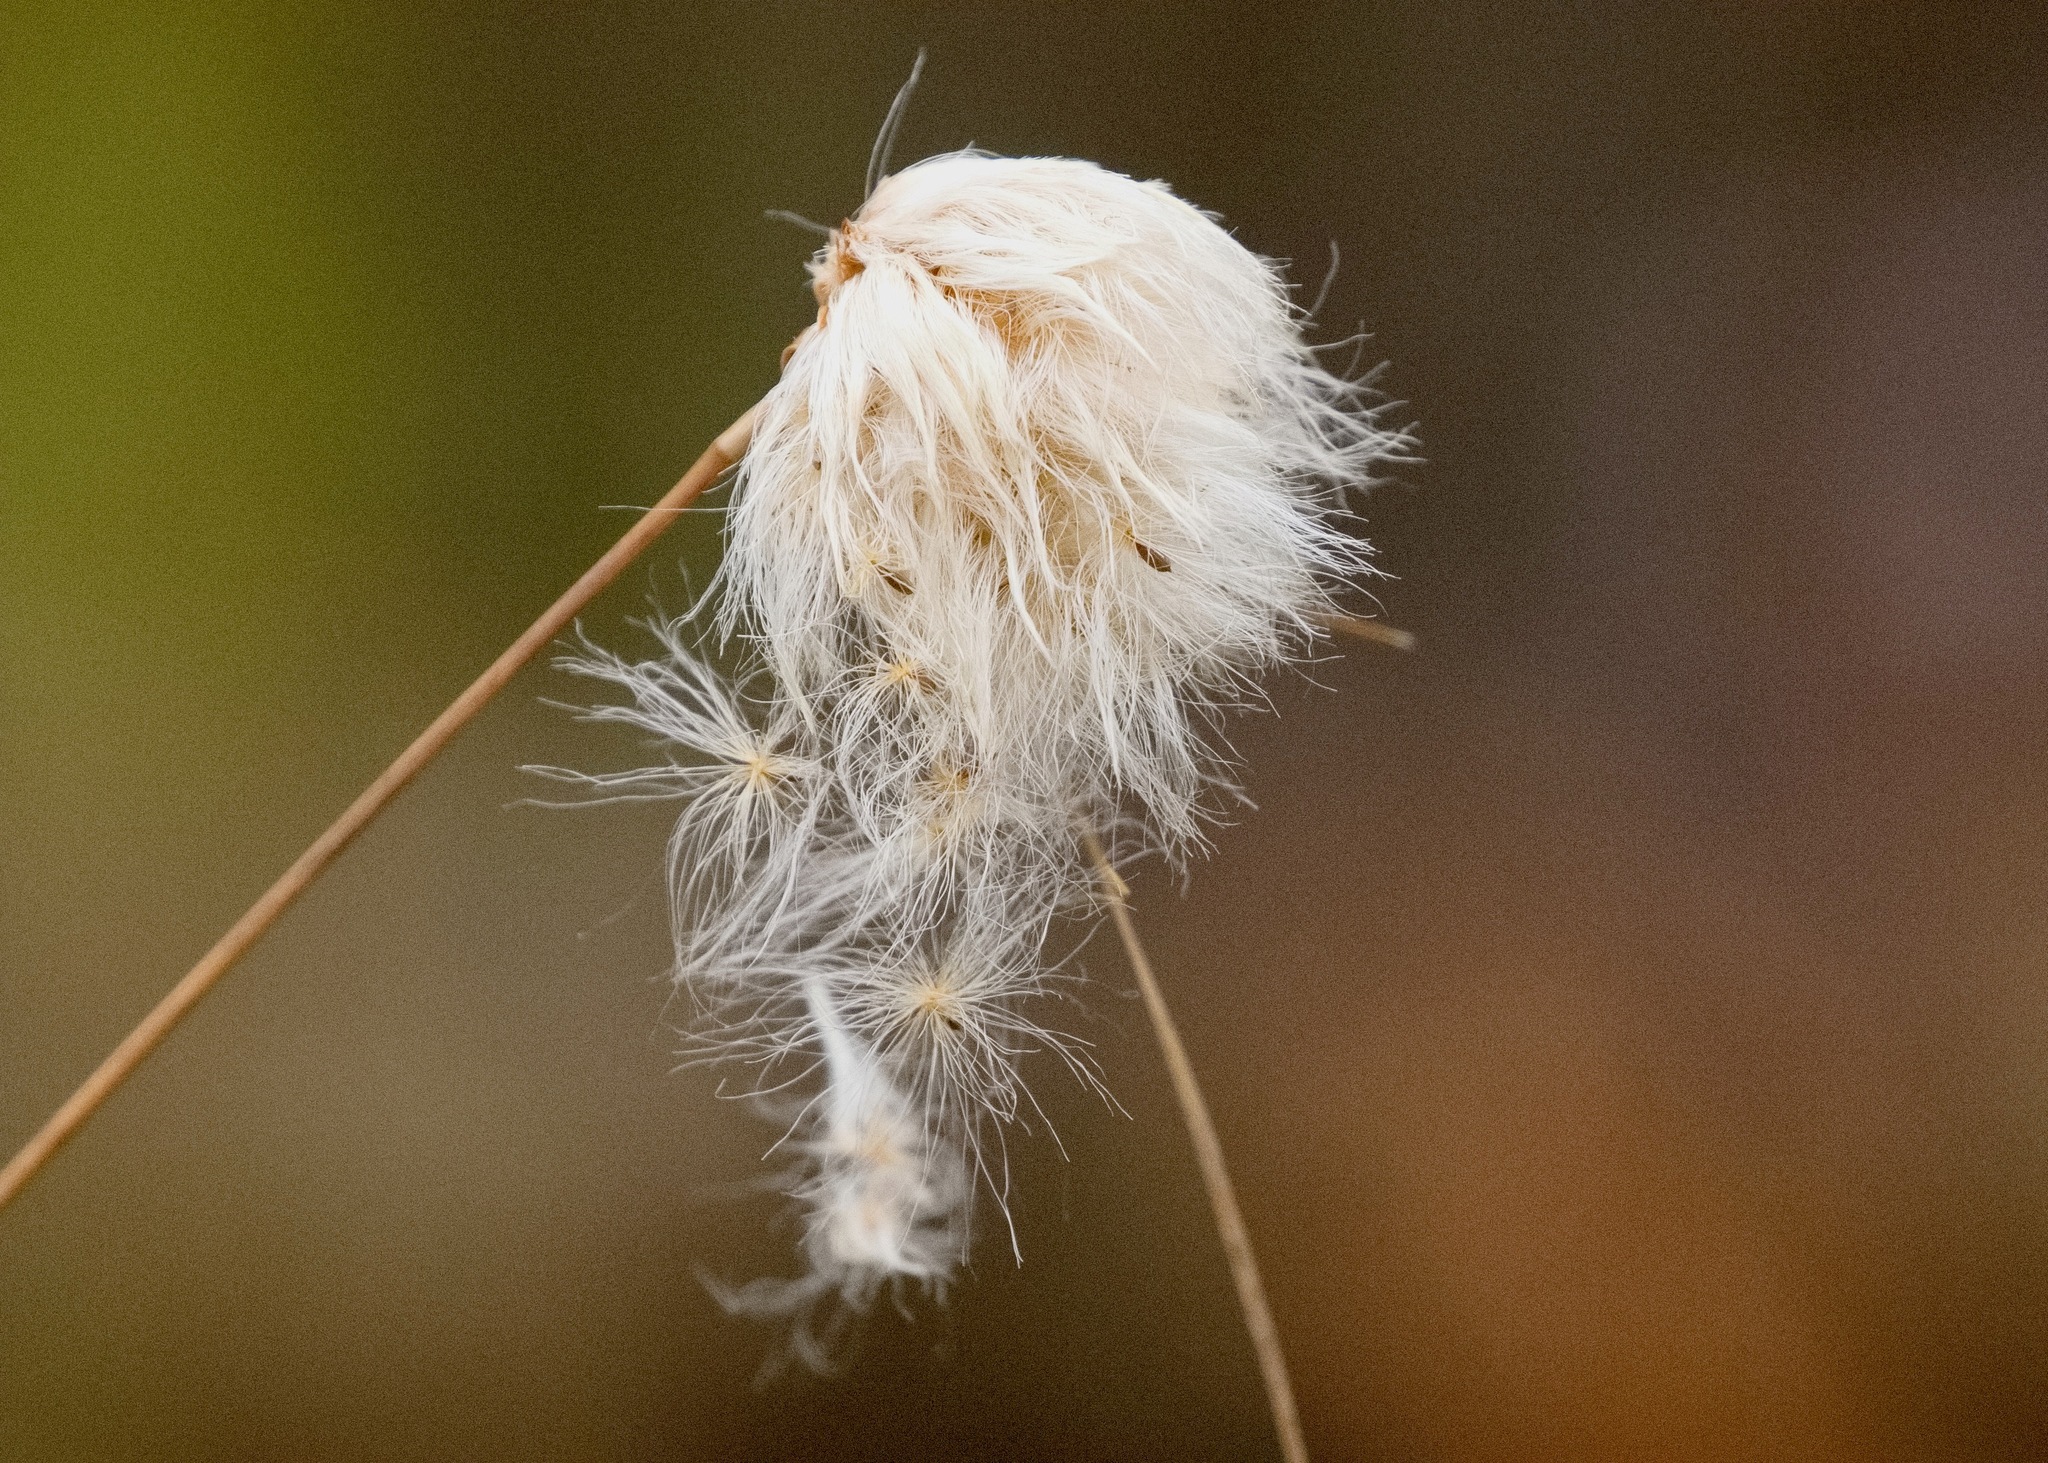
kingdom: Plantae
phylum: Tracheophyta
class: Liliopsida
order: Poales
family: Cyperaceae
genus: Eriophorum
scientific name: Eriophorum virginicum
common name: Tawny cottongrass
